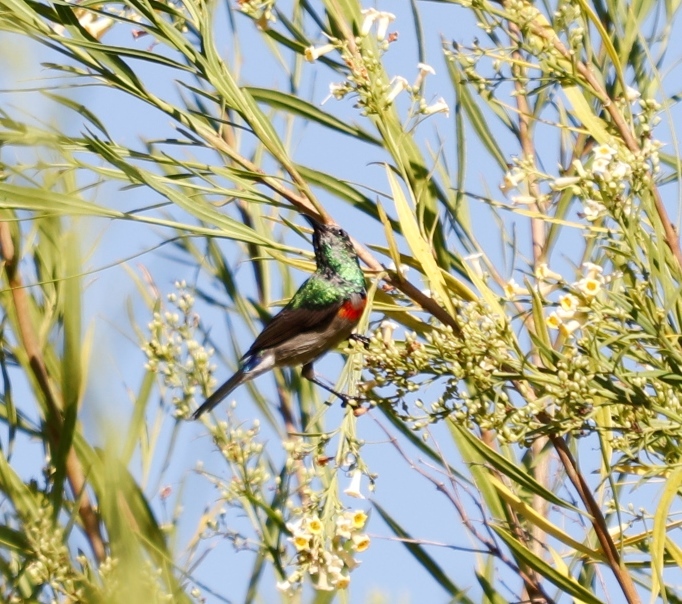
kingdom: Plantae
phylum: Tracheophyta
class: Magnoliopsida
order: Lamiales
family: Scrophulariaceae
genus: Freylinia
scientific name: Freylinia lanceolata
